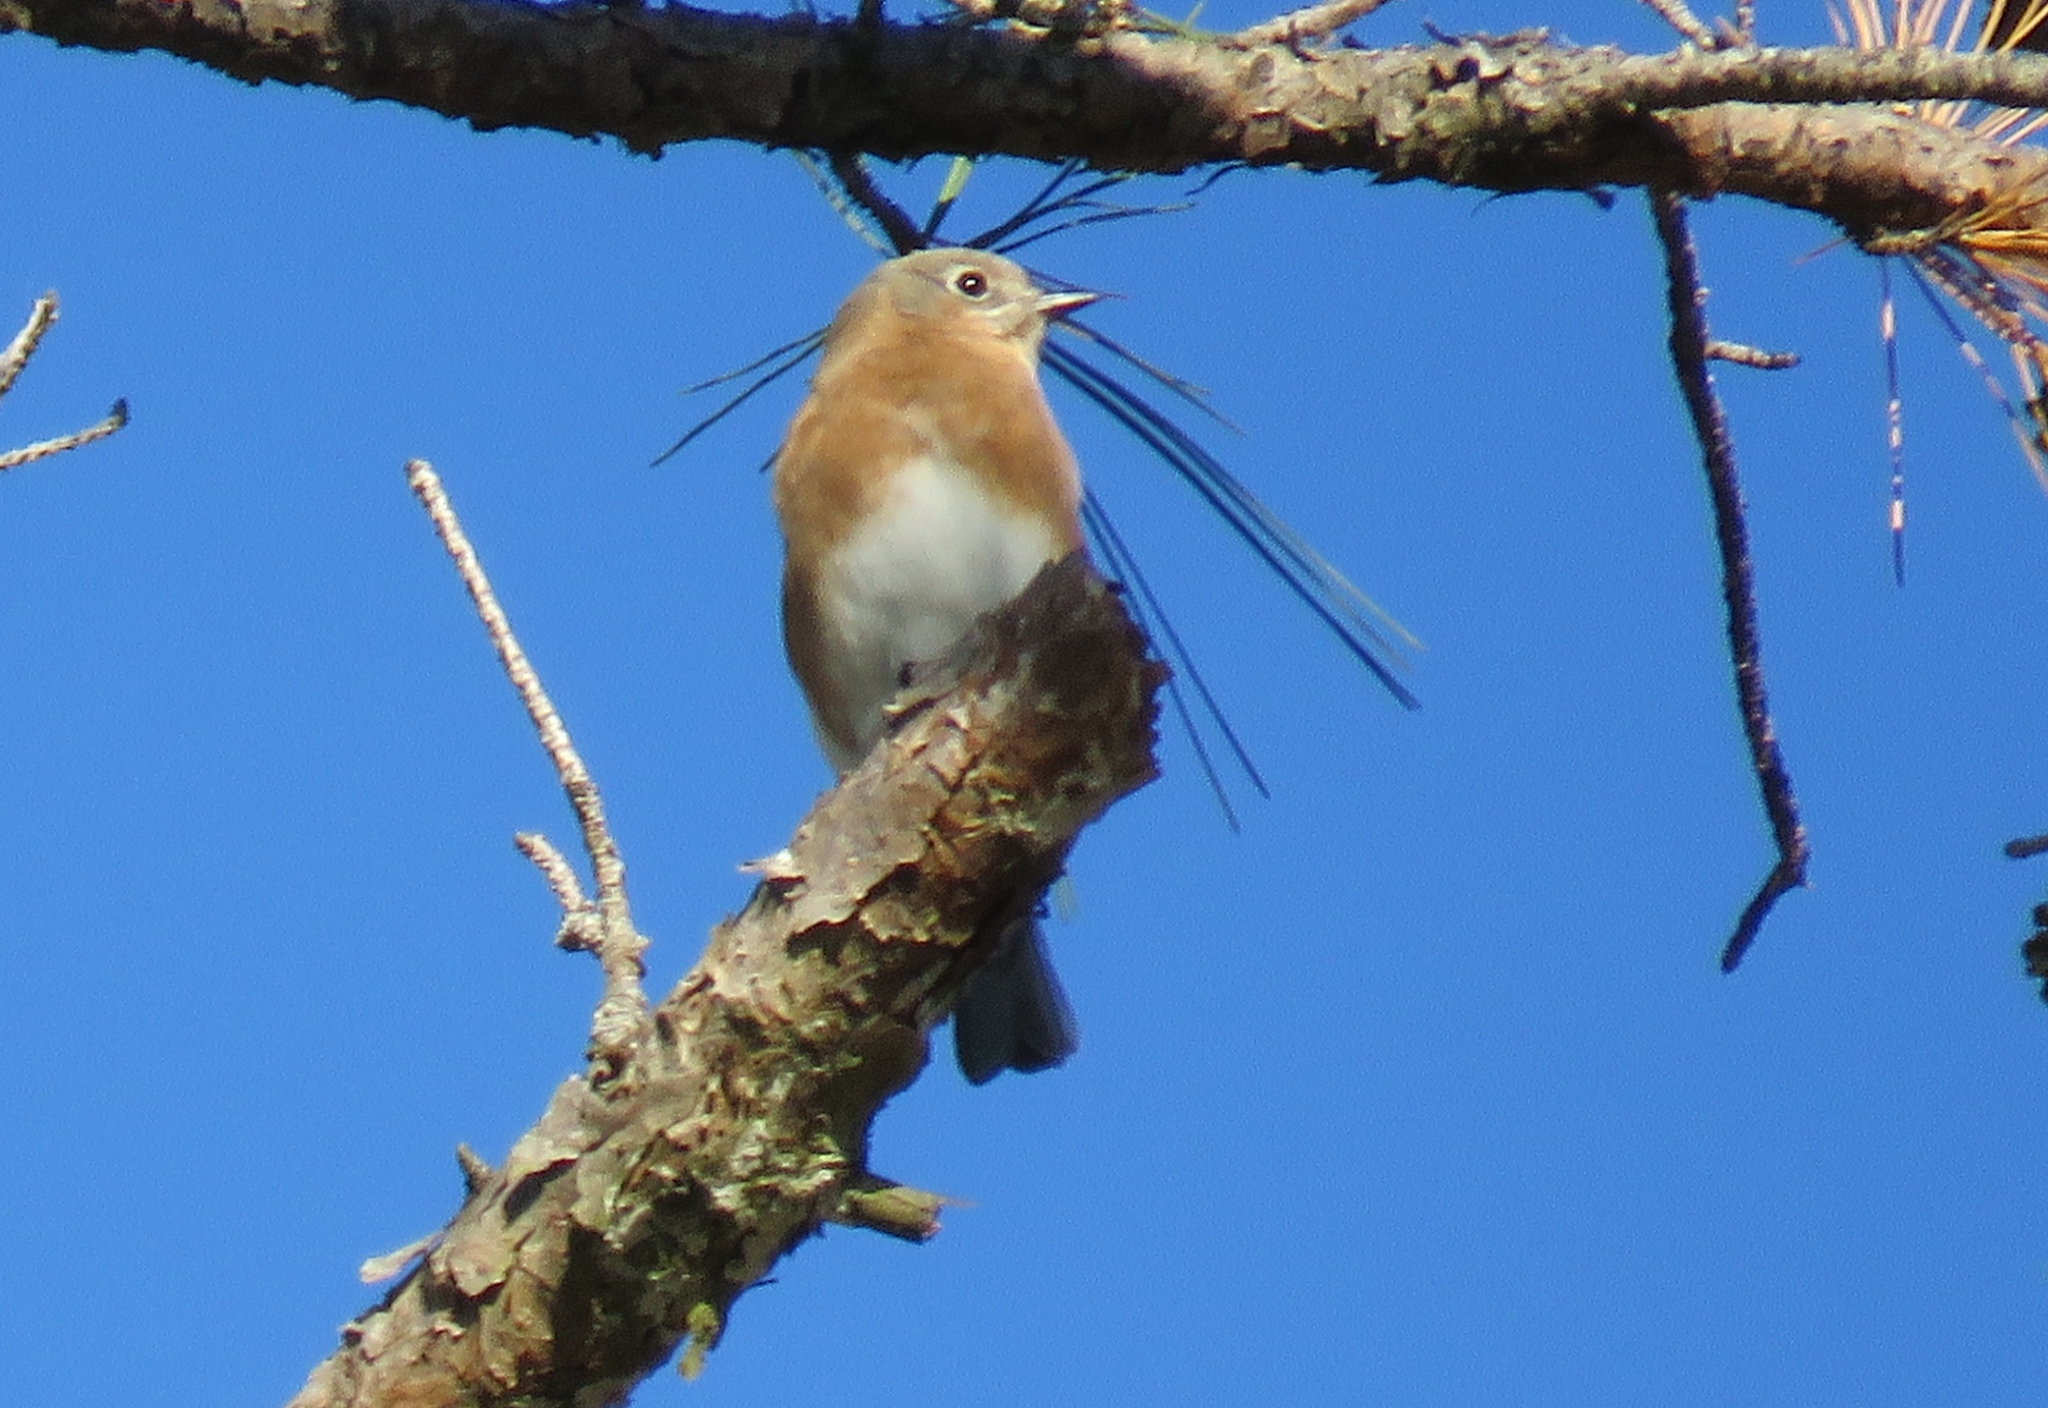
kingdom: Animalia
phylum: Chordata
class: Aves
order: Passeriformes
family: Turdidae
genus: Sialia
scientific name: Sialia sialis
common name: Eastern bluebird
